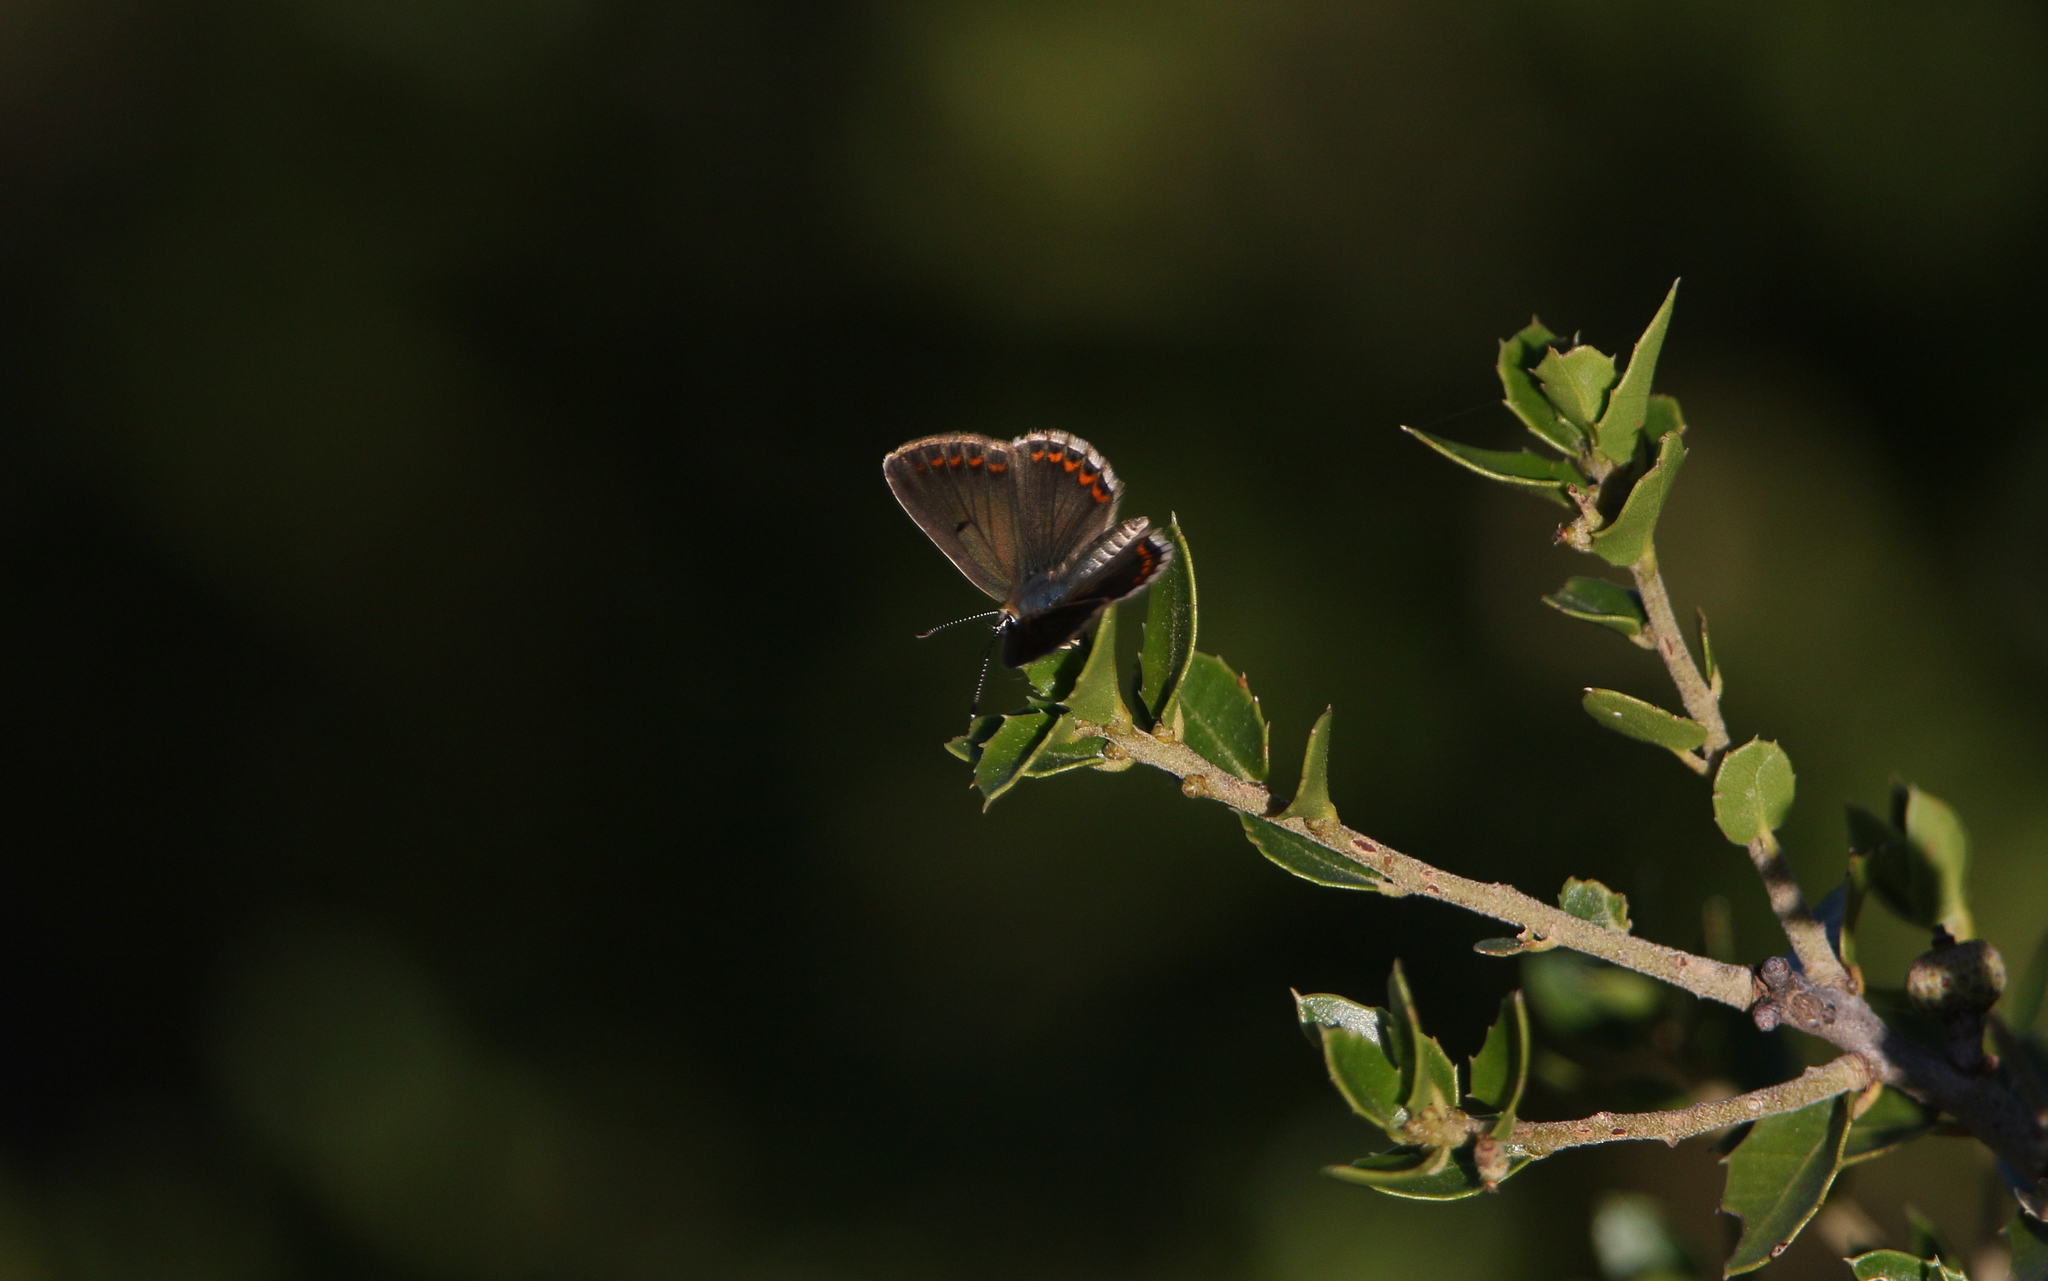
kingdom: Animalia
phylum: Arthropoda
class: Insecta
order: Lepidoptera
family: Lycaenidae
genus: Aricia
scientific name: Aricia agestis
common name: Brown argus
